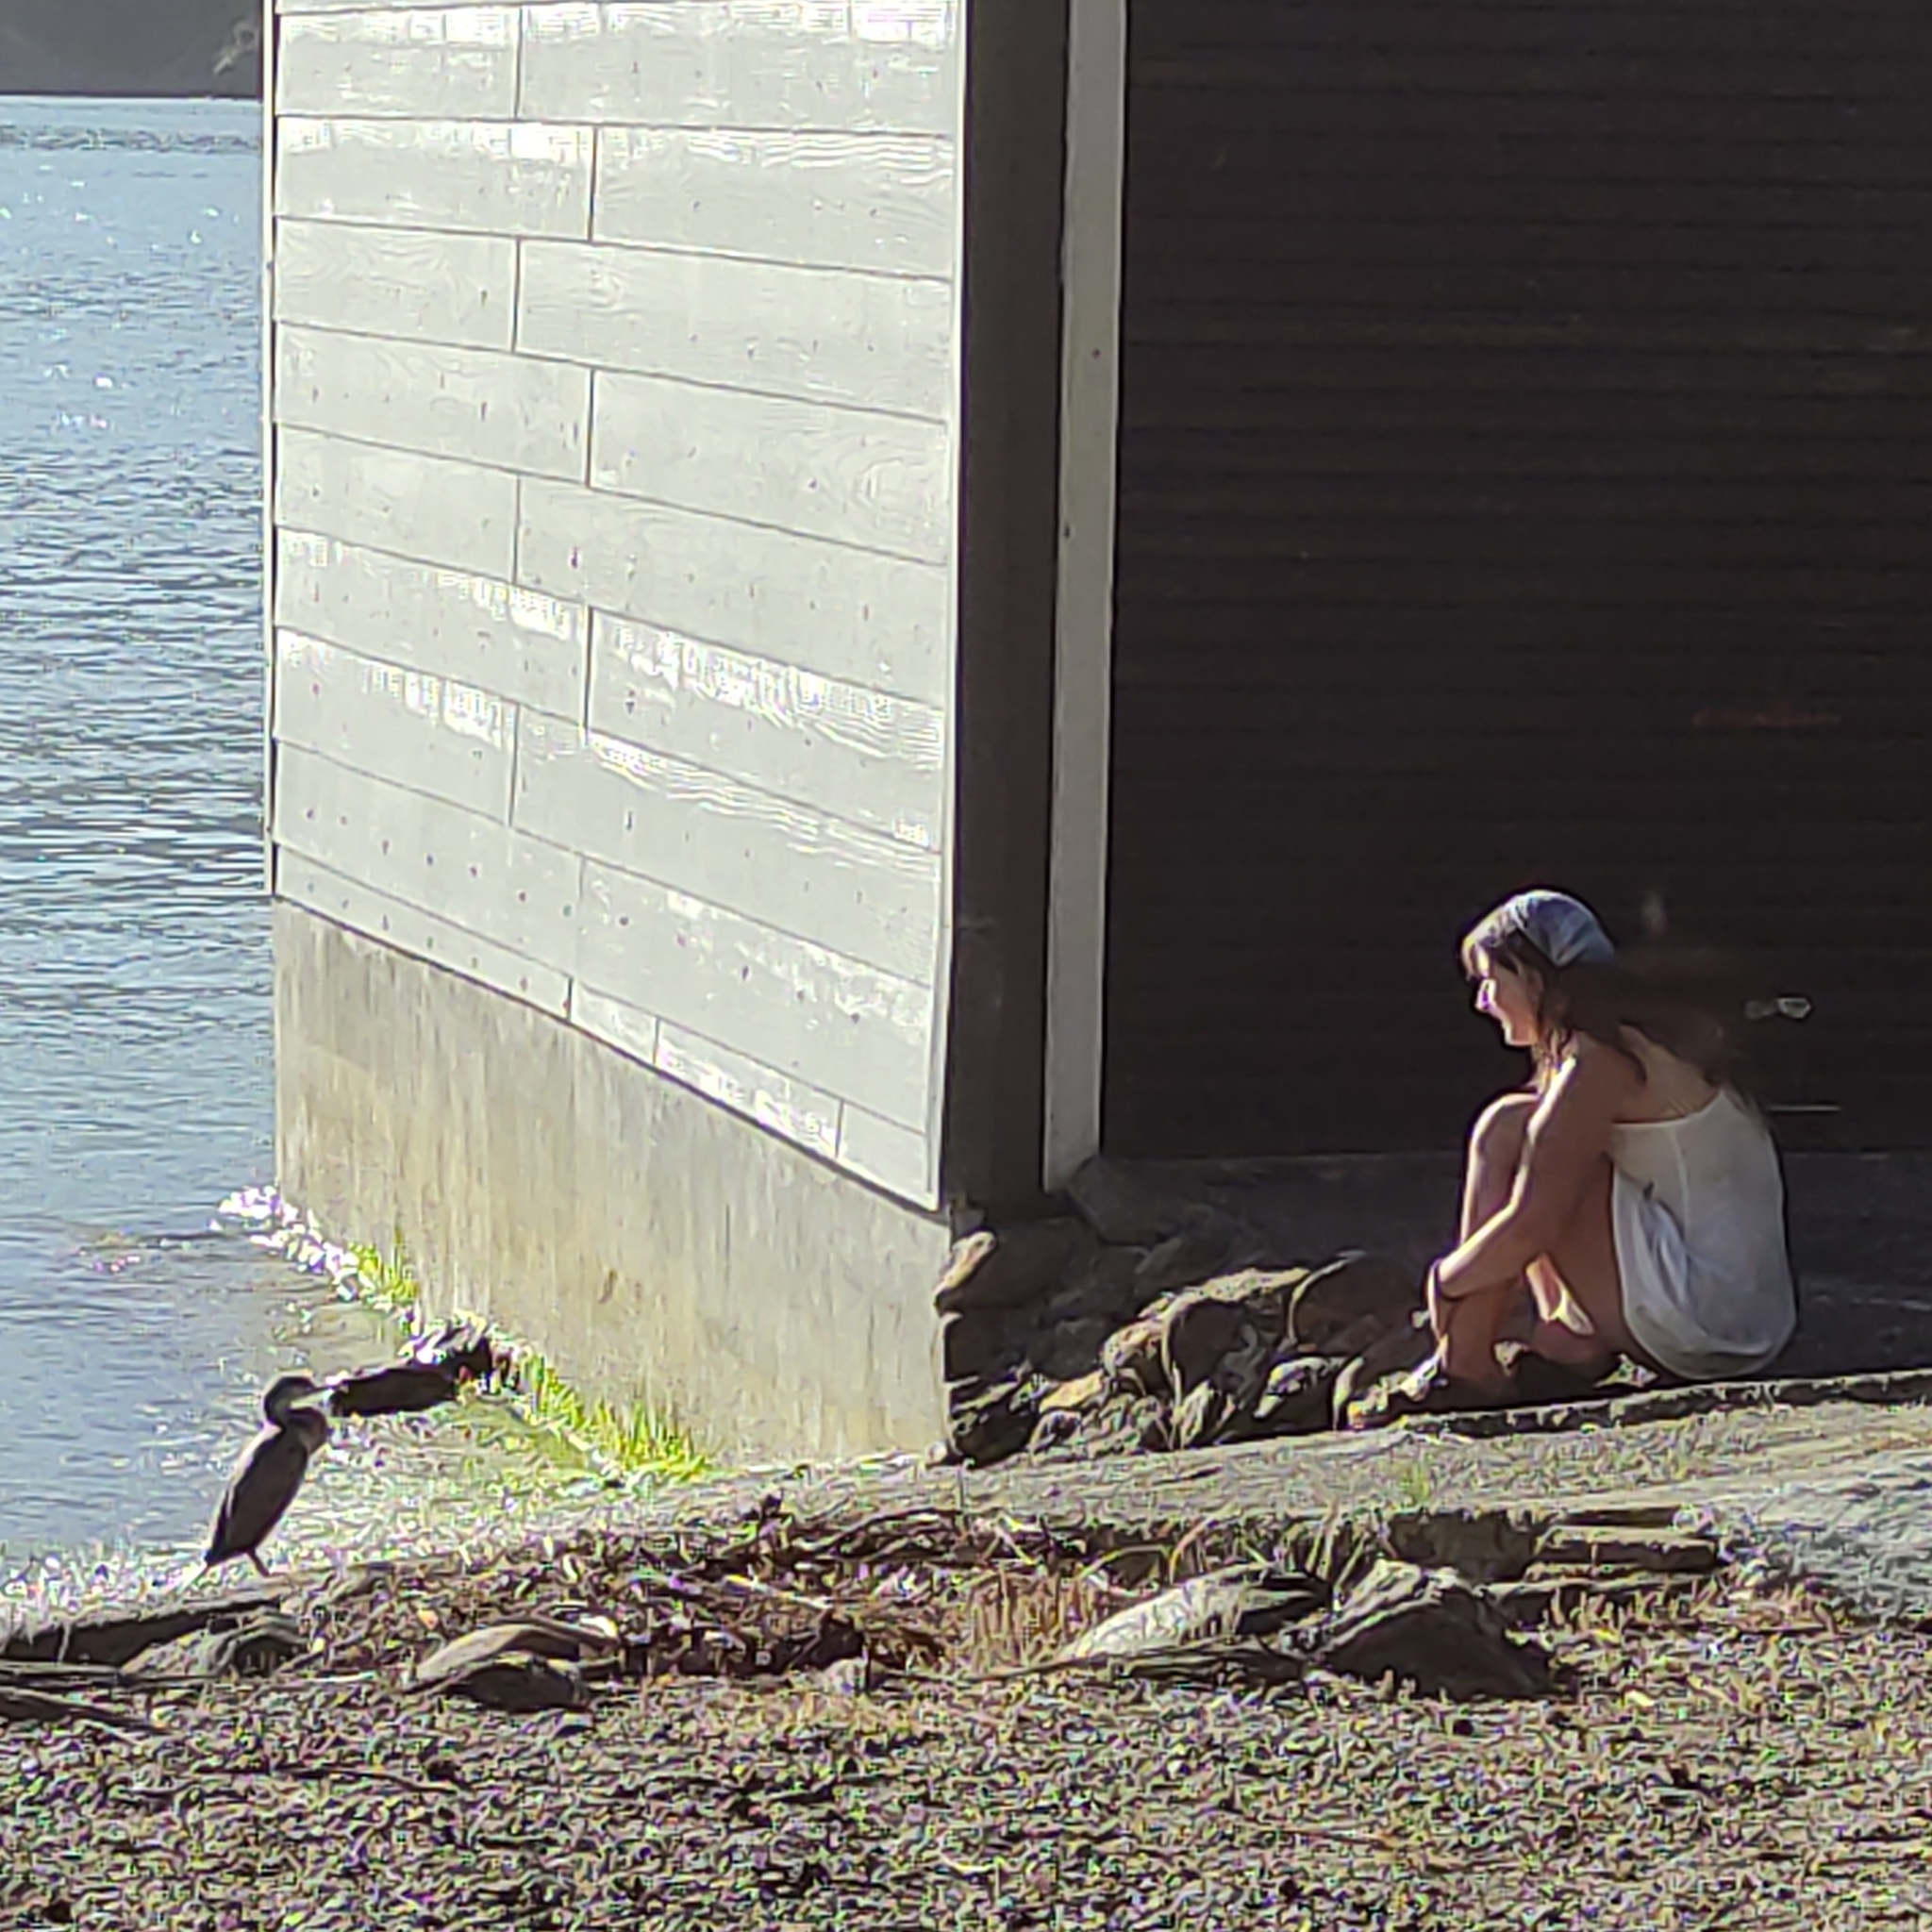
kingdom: Animalia
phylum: Chordata
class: Aves
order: Suliformes
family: Phalacrocoracidae
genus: Phalacrocorax
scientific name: Phalacrocorax punctatus
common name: Spotted shag
